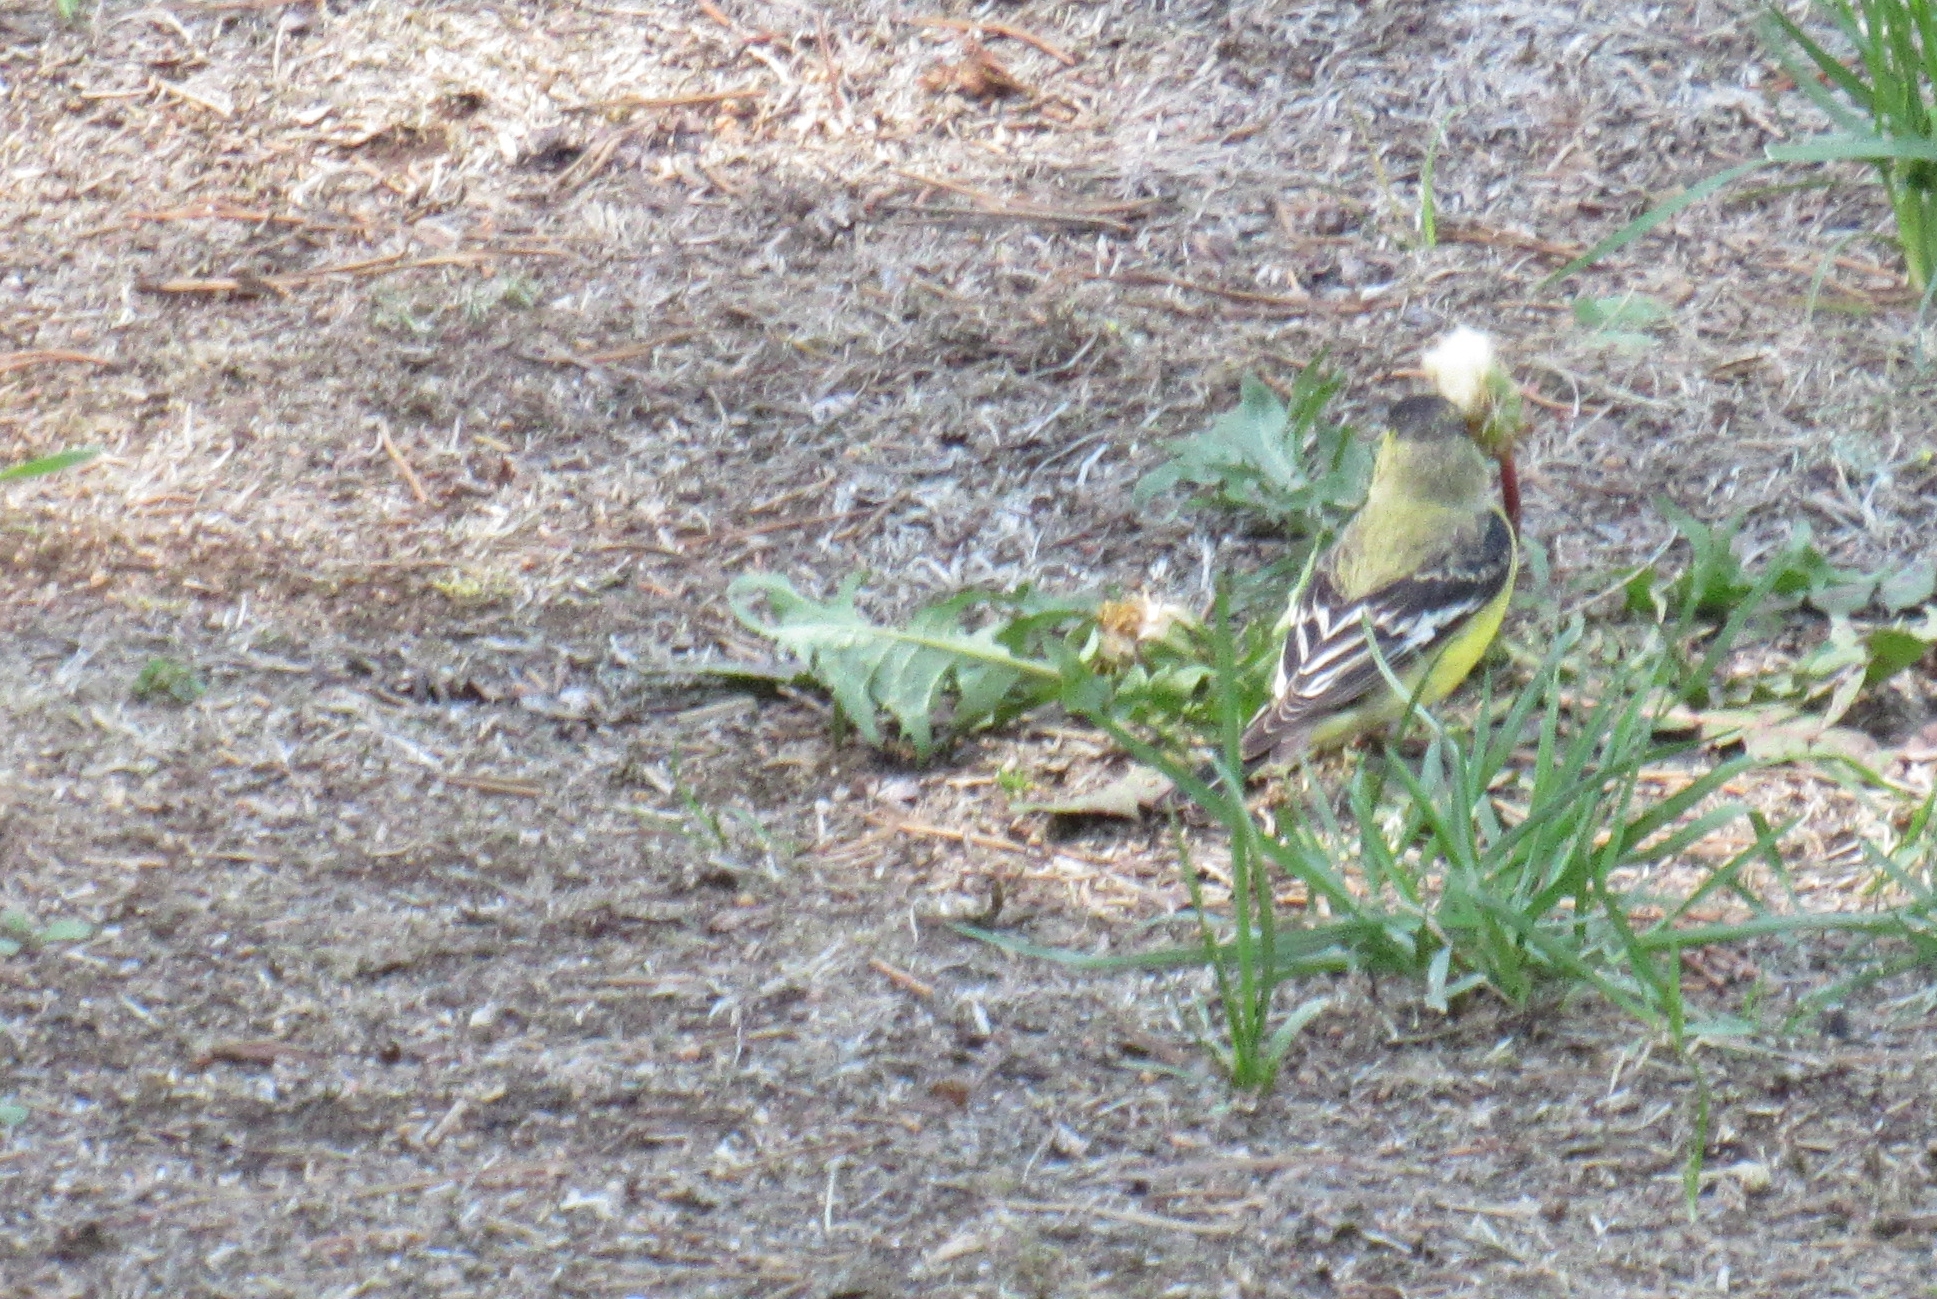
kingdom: Animalia
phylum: Chordata
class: Aves
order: Passeriformes
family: Fringillidae
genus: Spinus
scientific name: Spinus psaltria
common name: Lesser goldfinch
